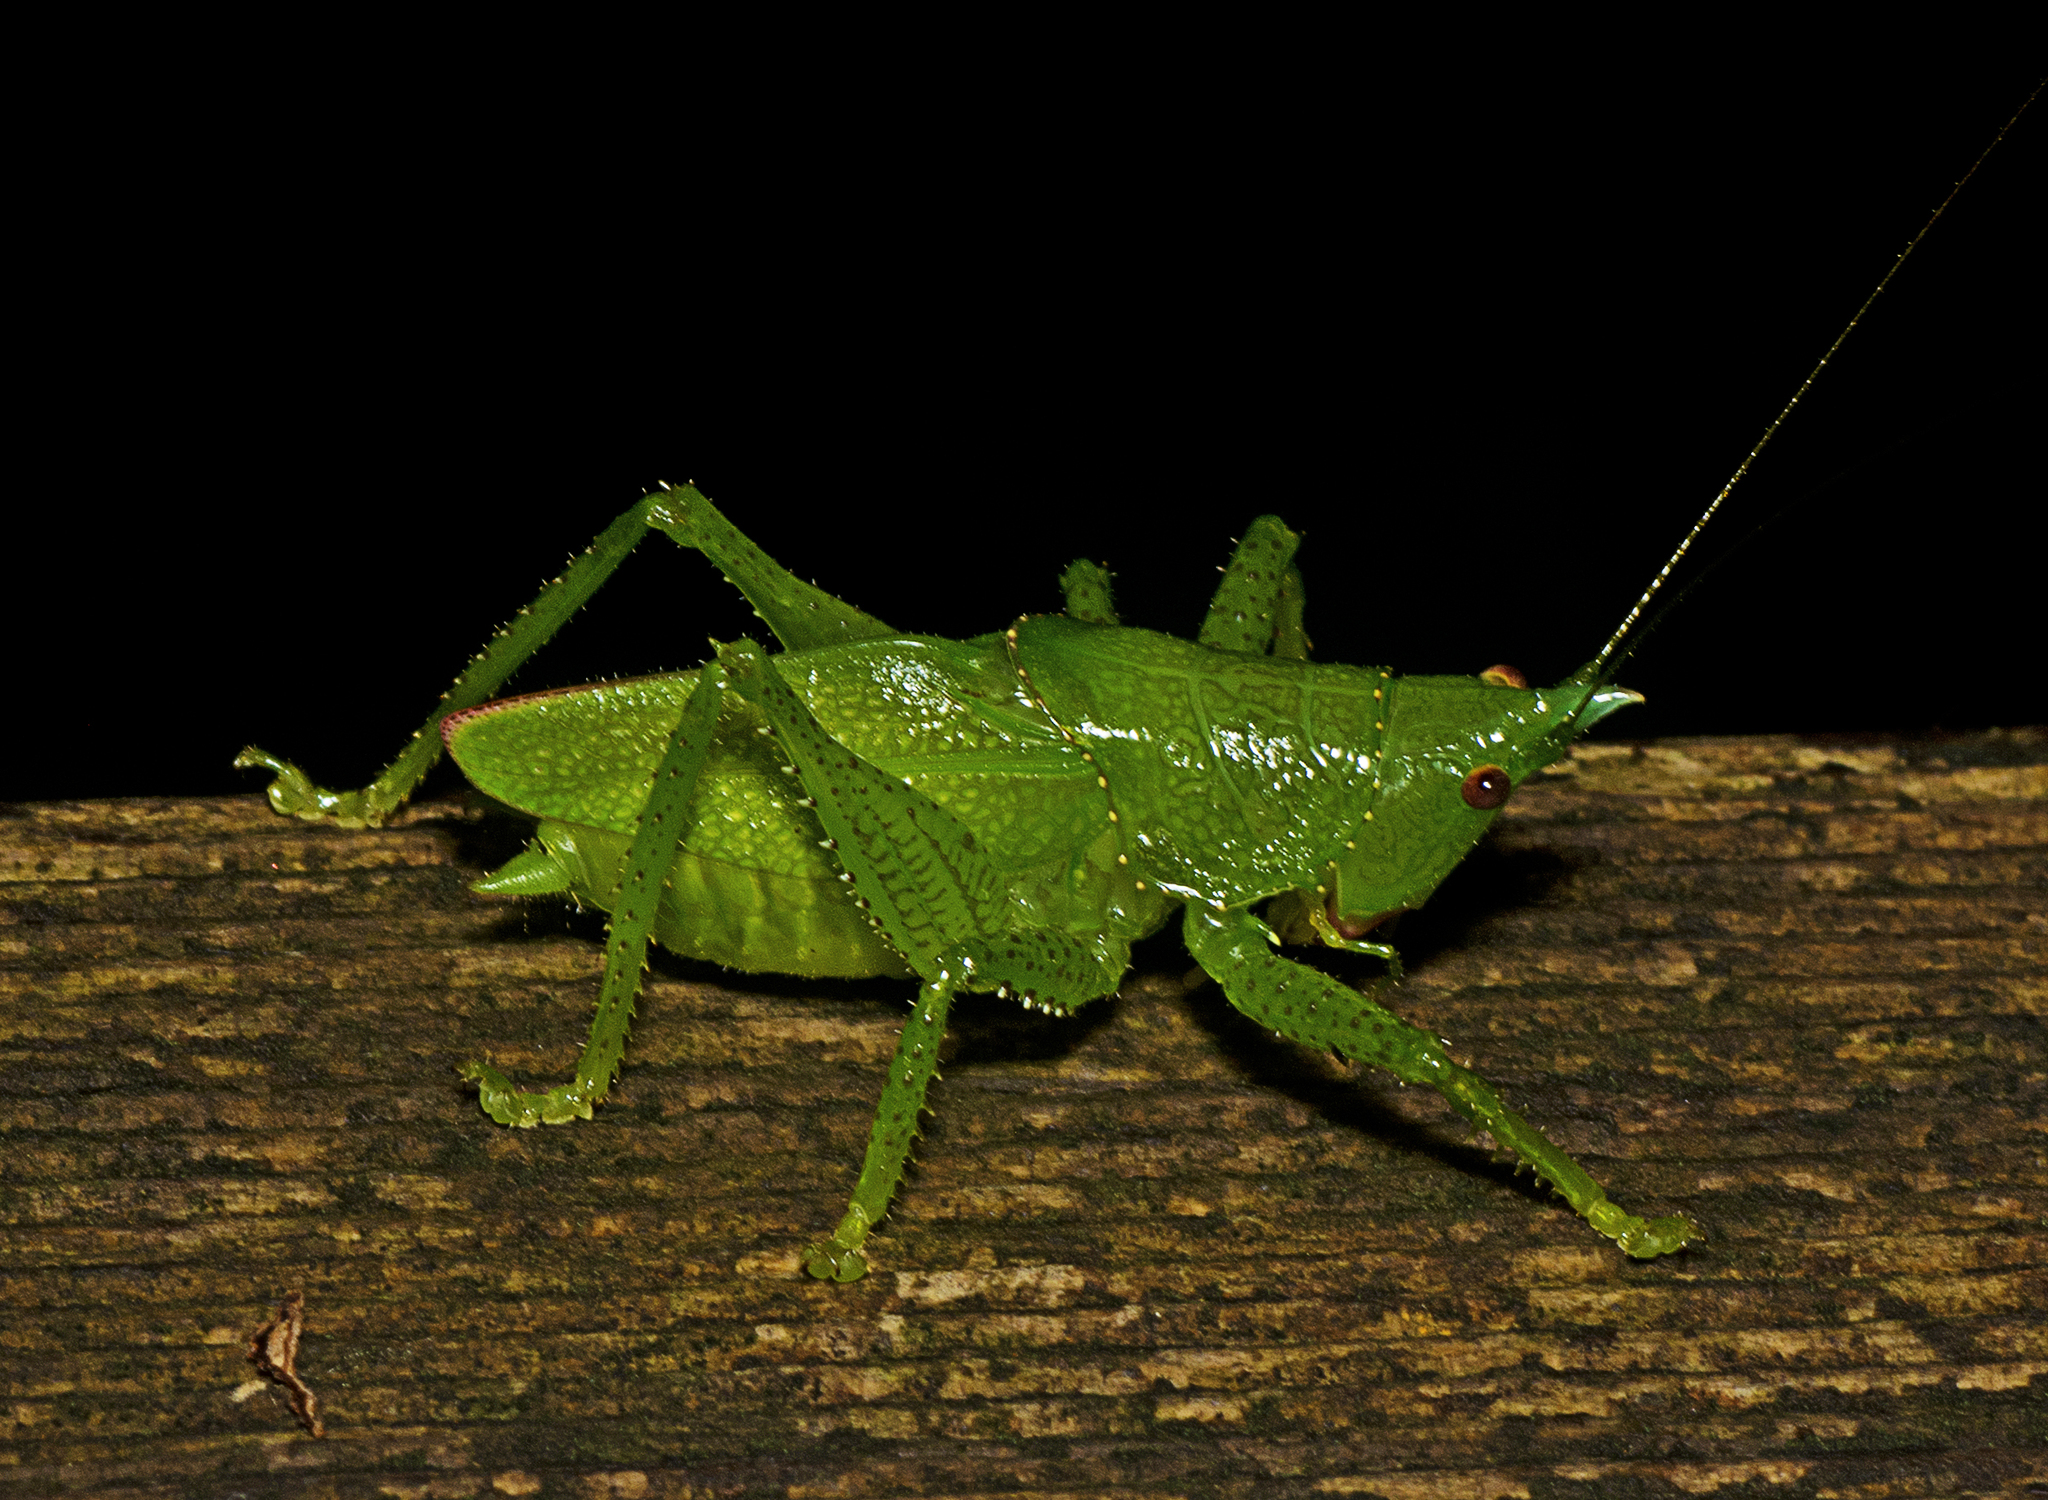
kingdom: Animalia
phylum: Arthropoda
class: Insecta
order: Orthoptera
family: Tettigoniidae
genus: Emeraldagraecia
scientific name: Emeraldagraecia munggarifrons
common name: Pink-faced emerald
